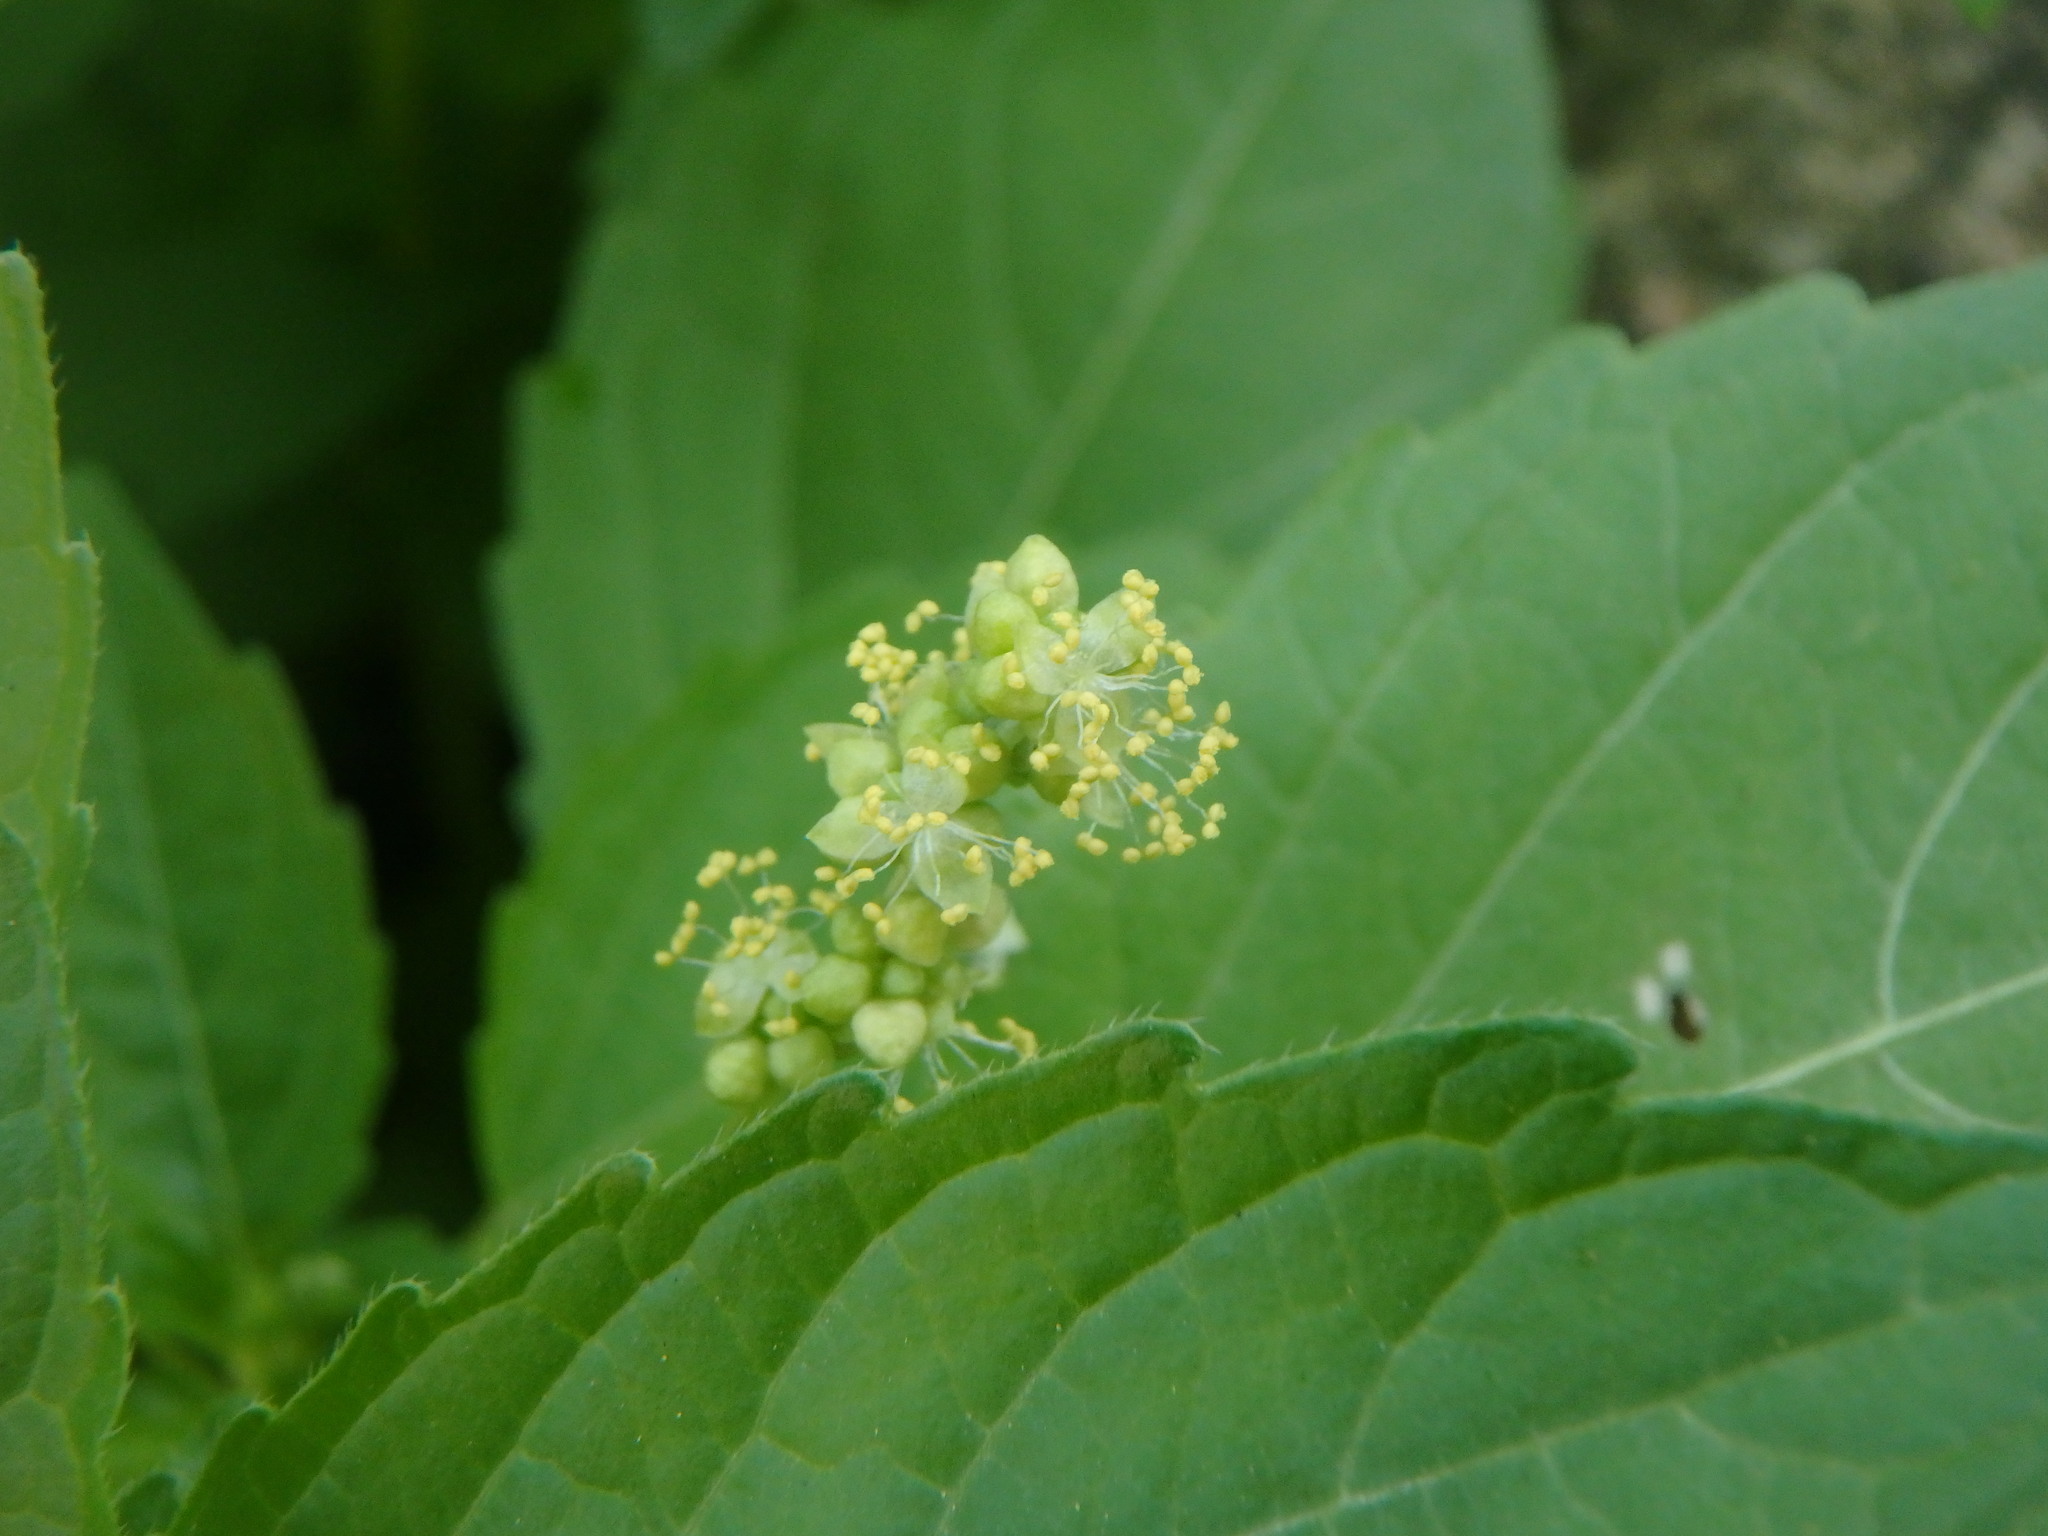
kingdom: Plantae
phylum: Tracheophyta
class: Magnoliopsida
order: Malpighiales
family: Euphorbiaceae
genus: Mercurialis
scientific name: Mercurialis annua
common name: Annual mercury
